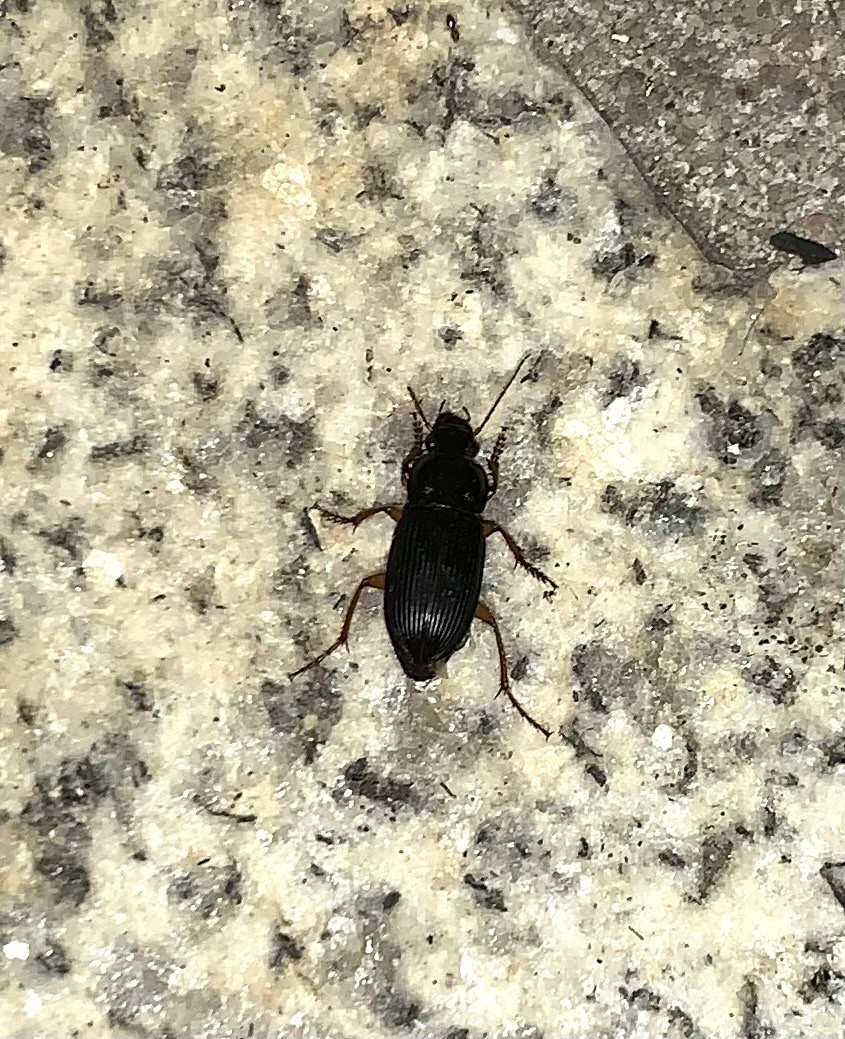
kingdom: Animalia
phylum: Arthropoda
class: Insecta
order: Coleoptera
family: Carabidae
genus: Harpalus
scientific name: Harpalus pensylvanicus
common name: Pennsylvania dingy ground beetle
